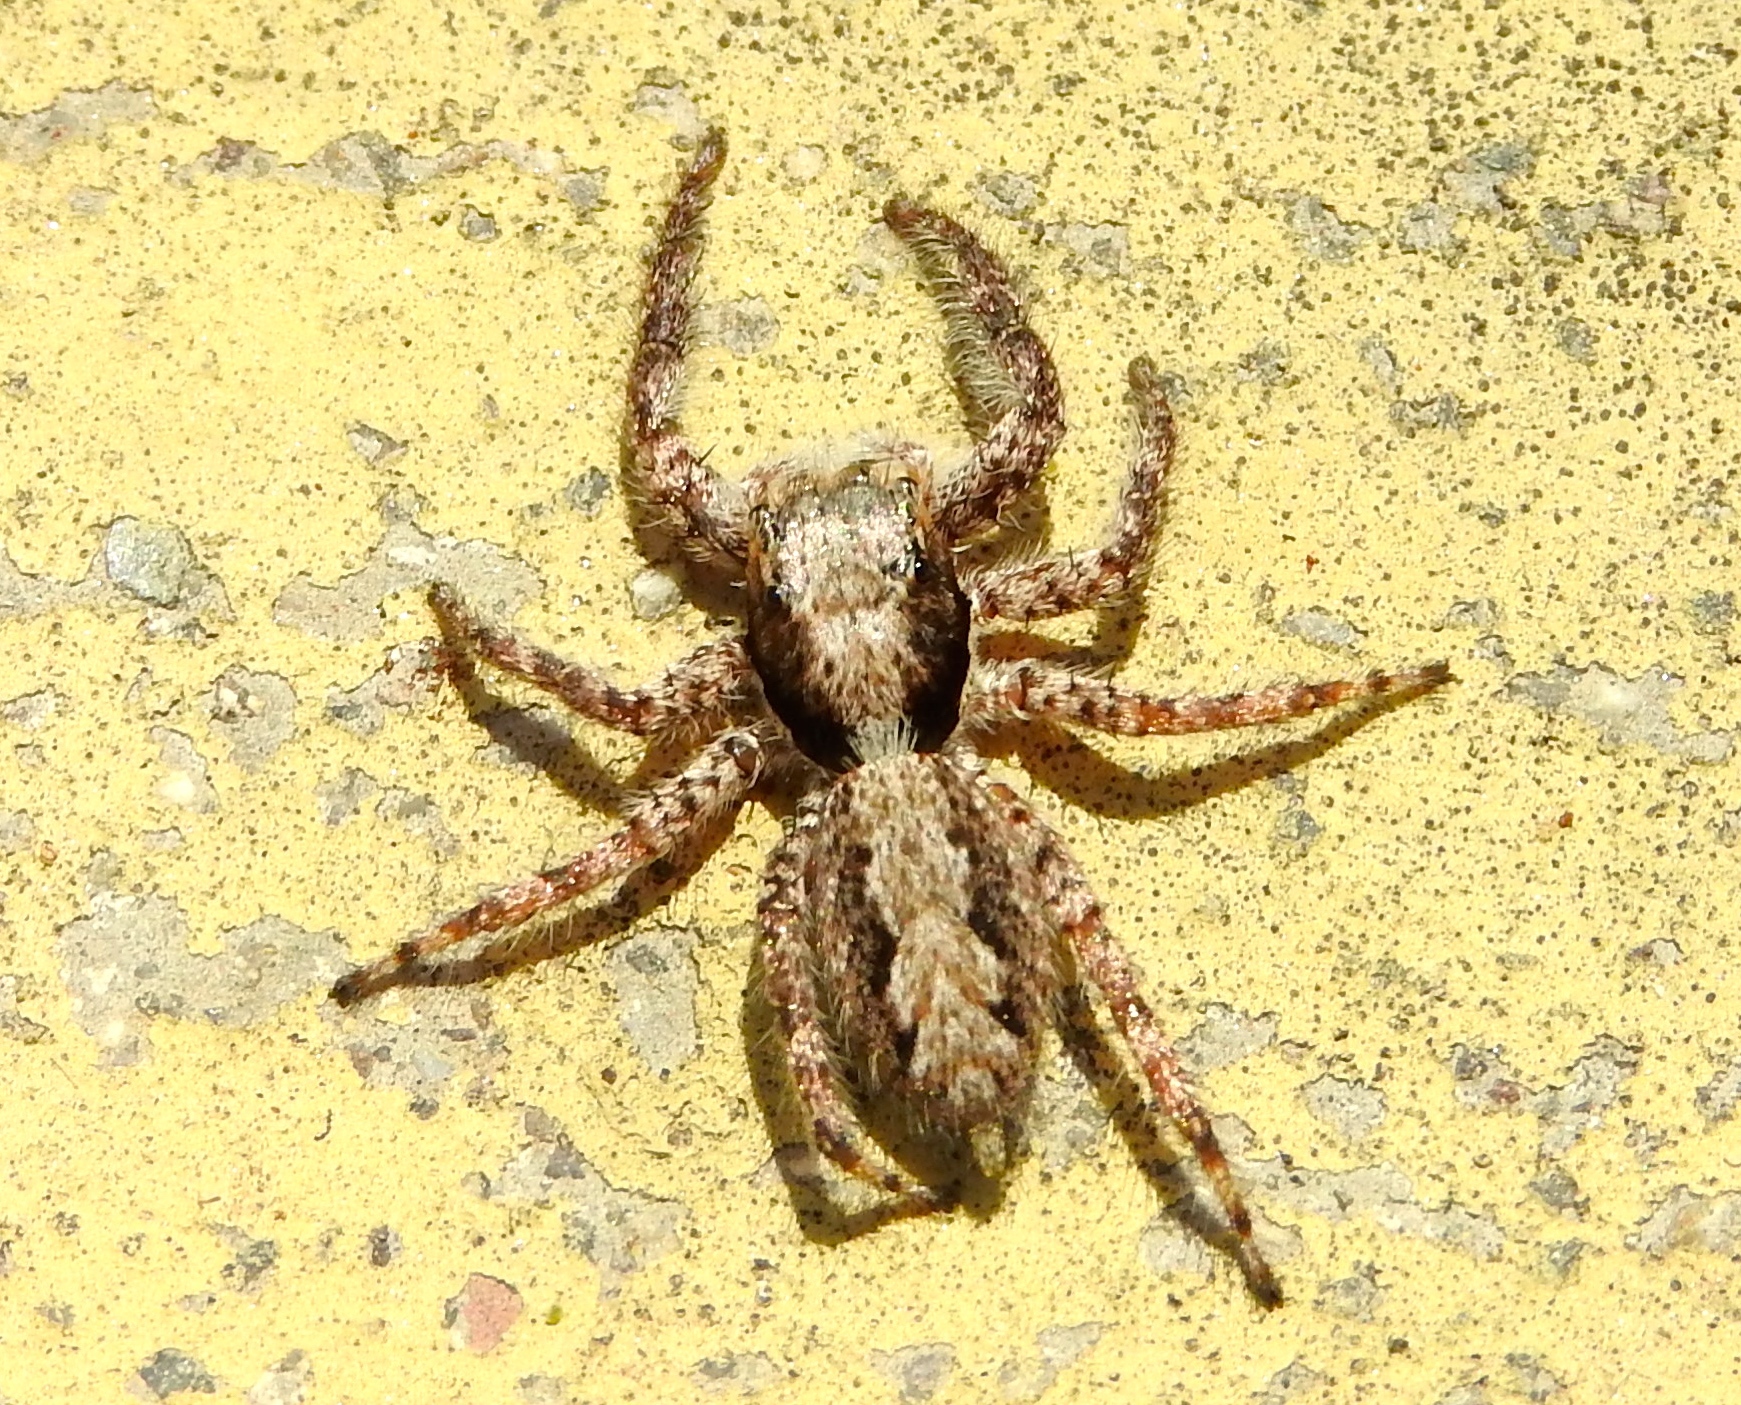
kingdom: Animalia
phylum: Arthropoda
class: Arachnida
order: Araneae
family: Salticidae
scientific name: Salticidae
